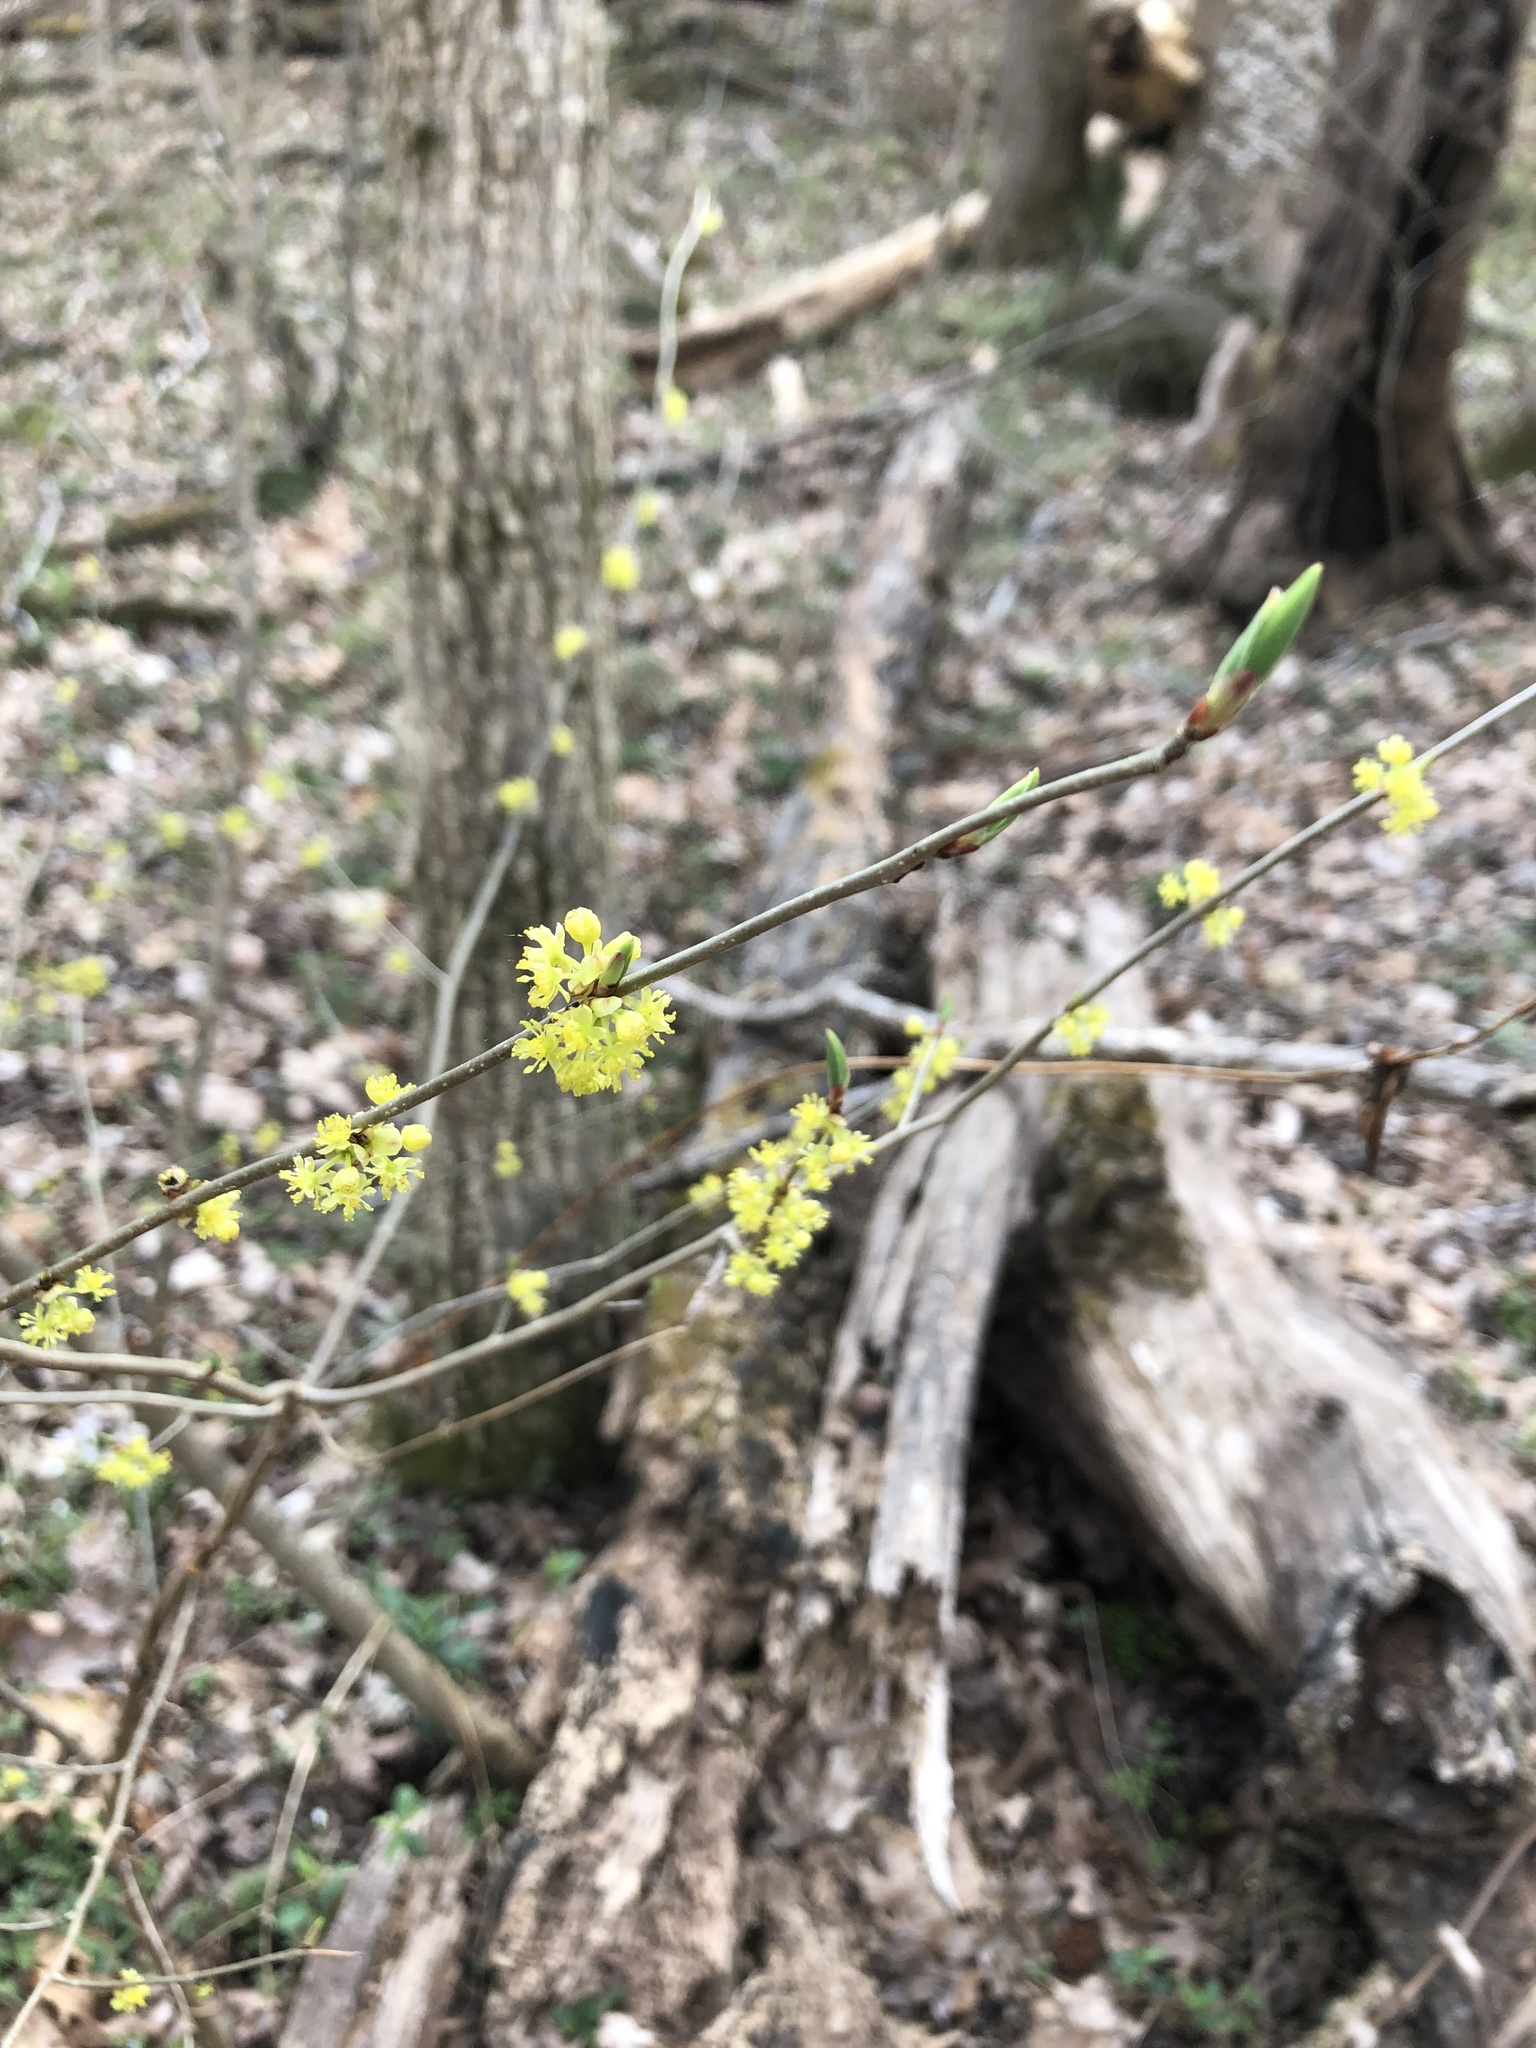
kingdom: Plantae
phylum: Tracheophyta
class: Magnoliopsida
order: Laurales
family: Lauraceae
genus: Lindera
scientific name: Lindera benzoin
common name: Spicebush
